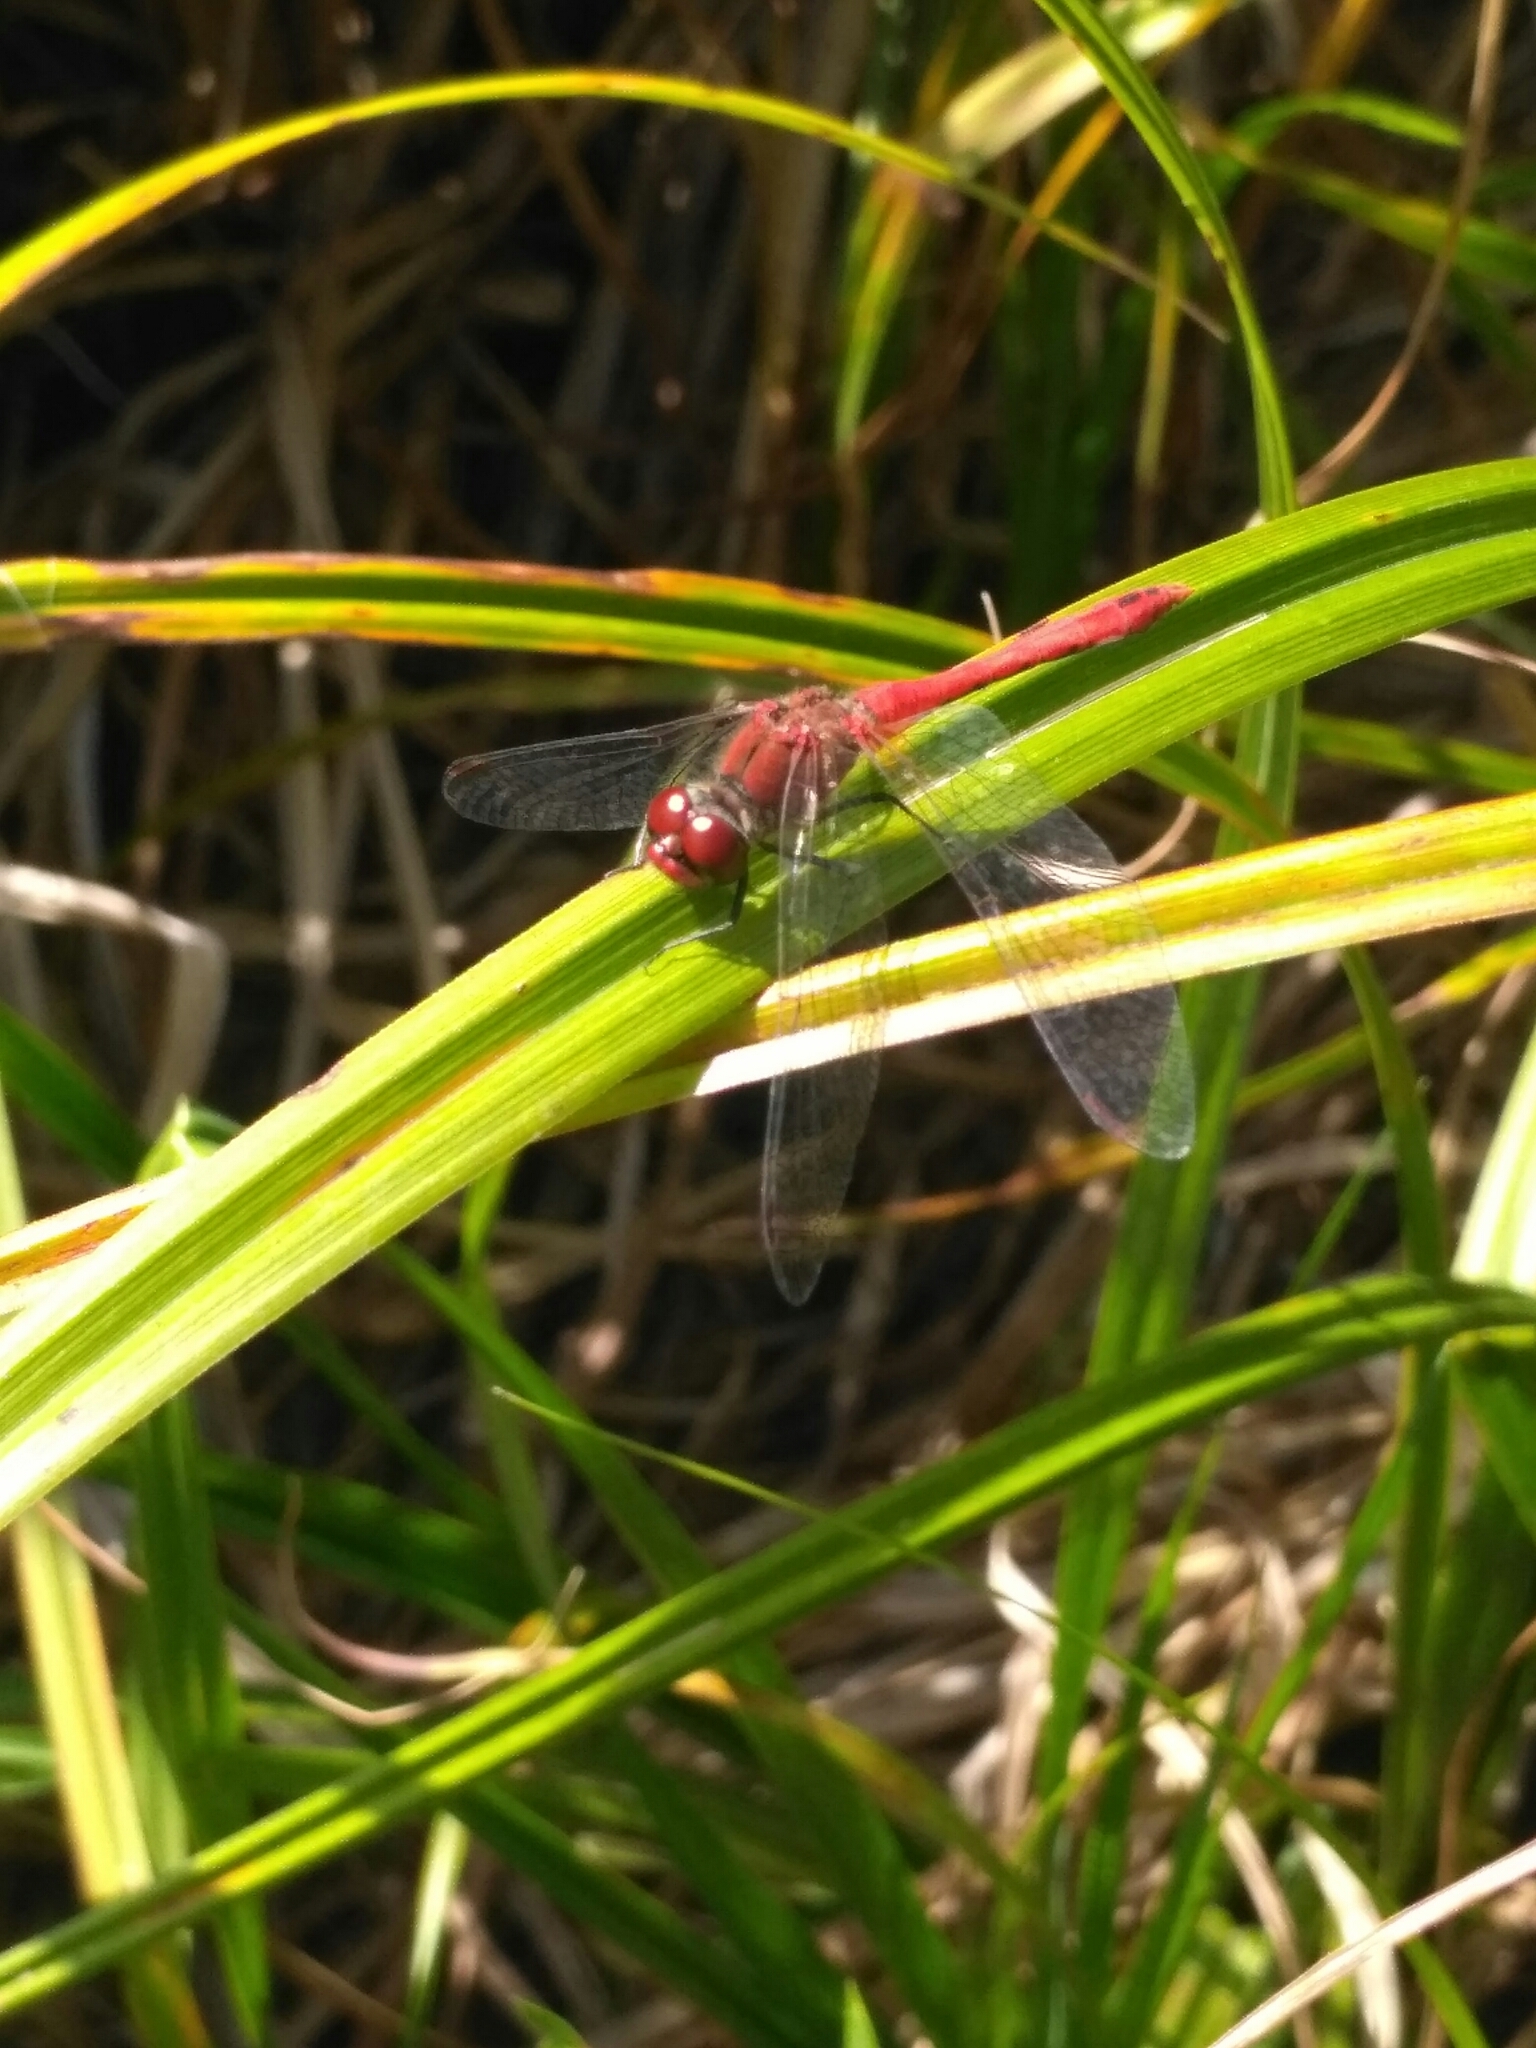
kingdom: Animalia
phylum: Arthropoda
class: Insecta
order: Odonata
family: Libellulidae
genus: Sympetrum
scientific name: Sympetrum sanguineum
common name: Ruddy darter
